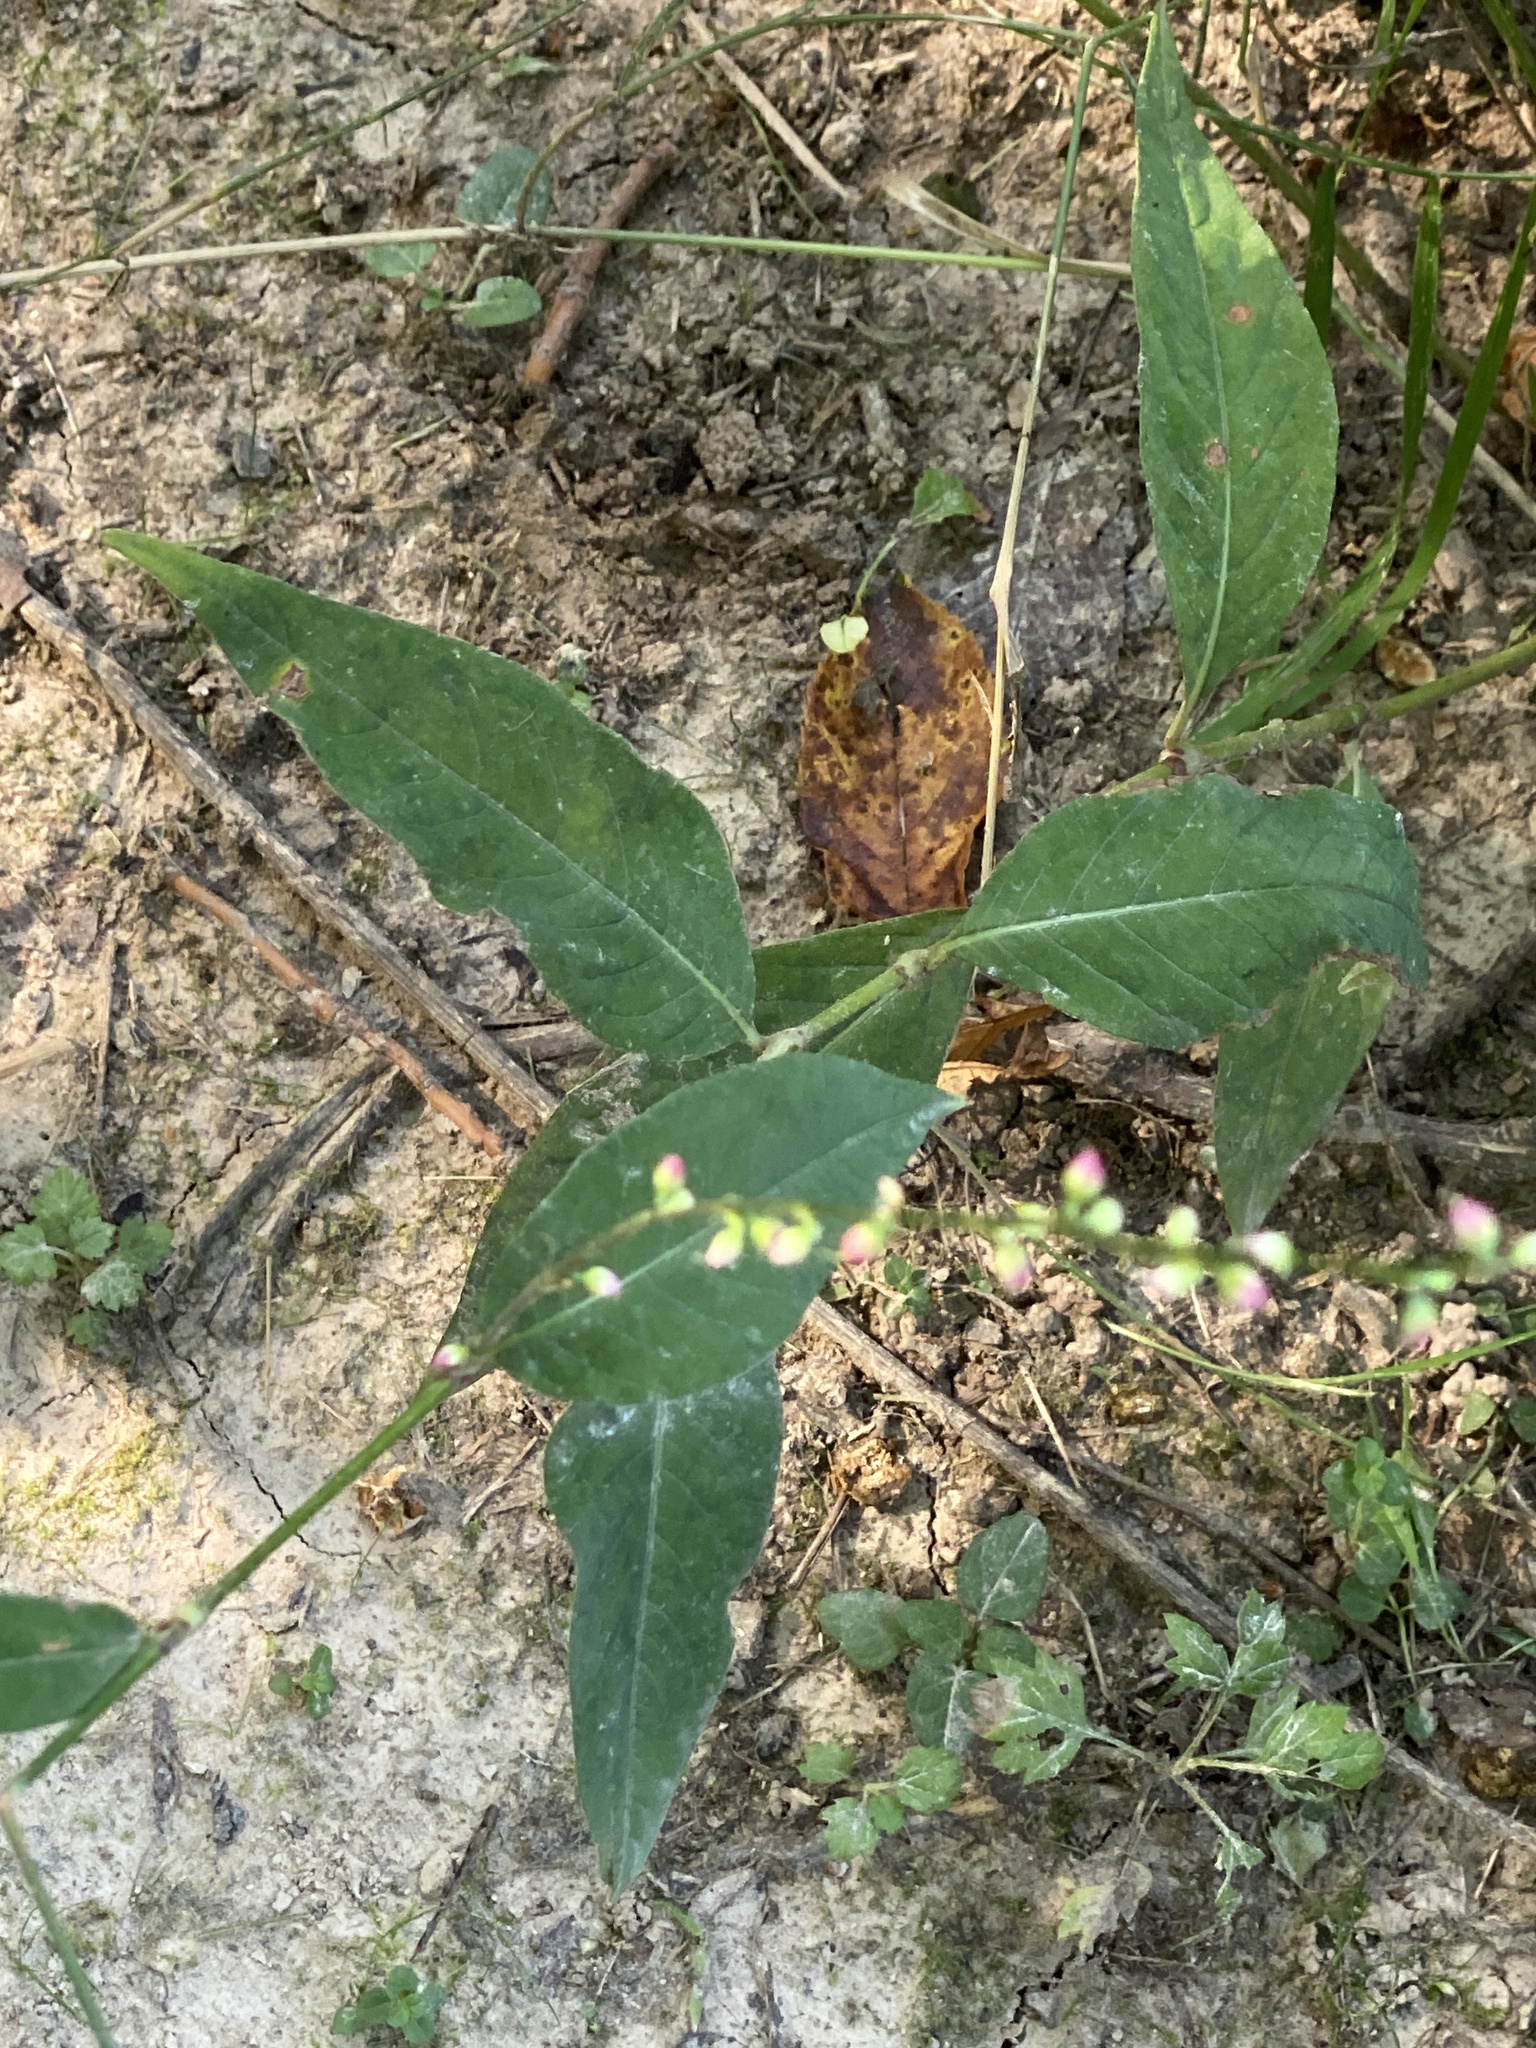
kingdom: Plantae
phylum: Tracheophyta
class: Magnoliopsida
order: Caryophyllales
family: Polygonaceae
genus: Persicaria
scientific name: Persicaria virginiana
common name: Jumpseed
